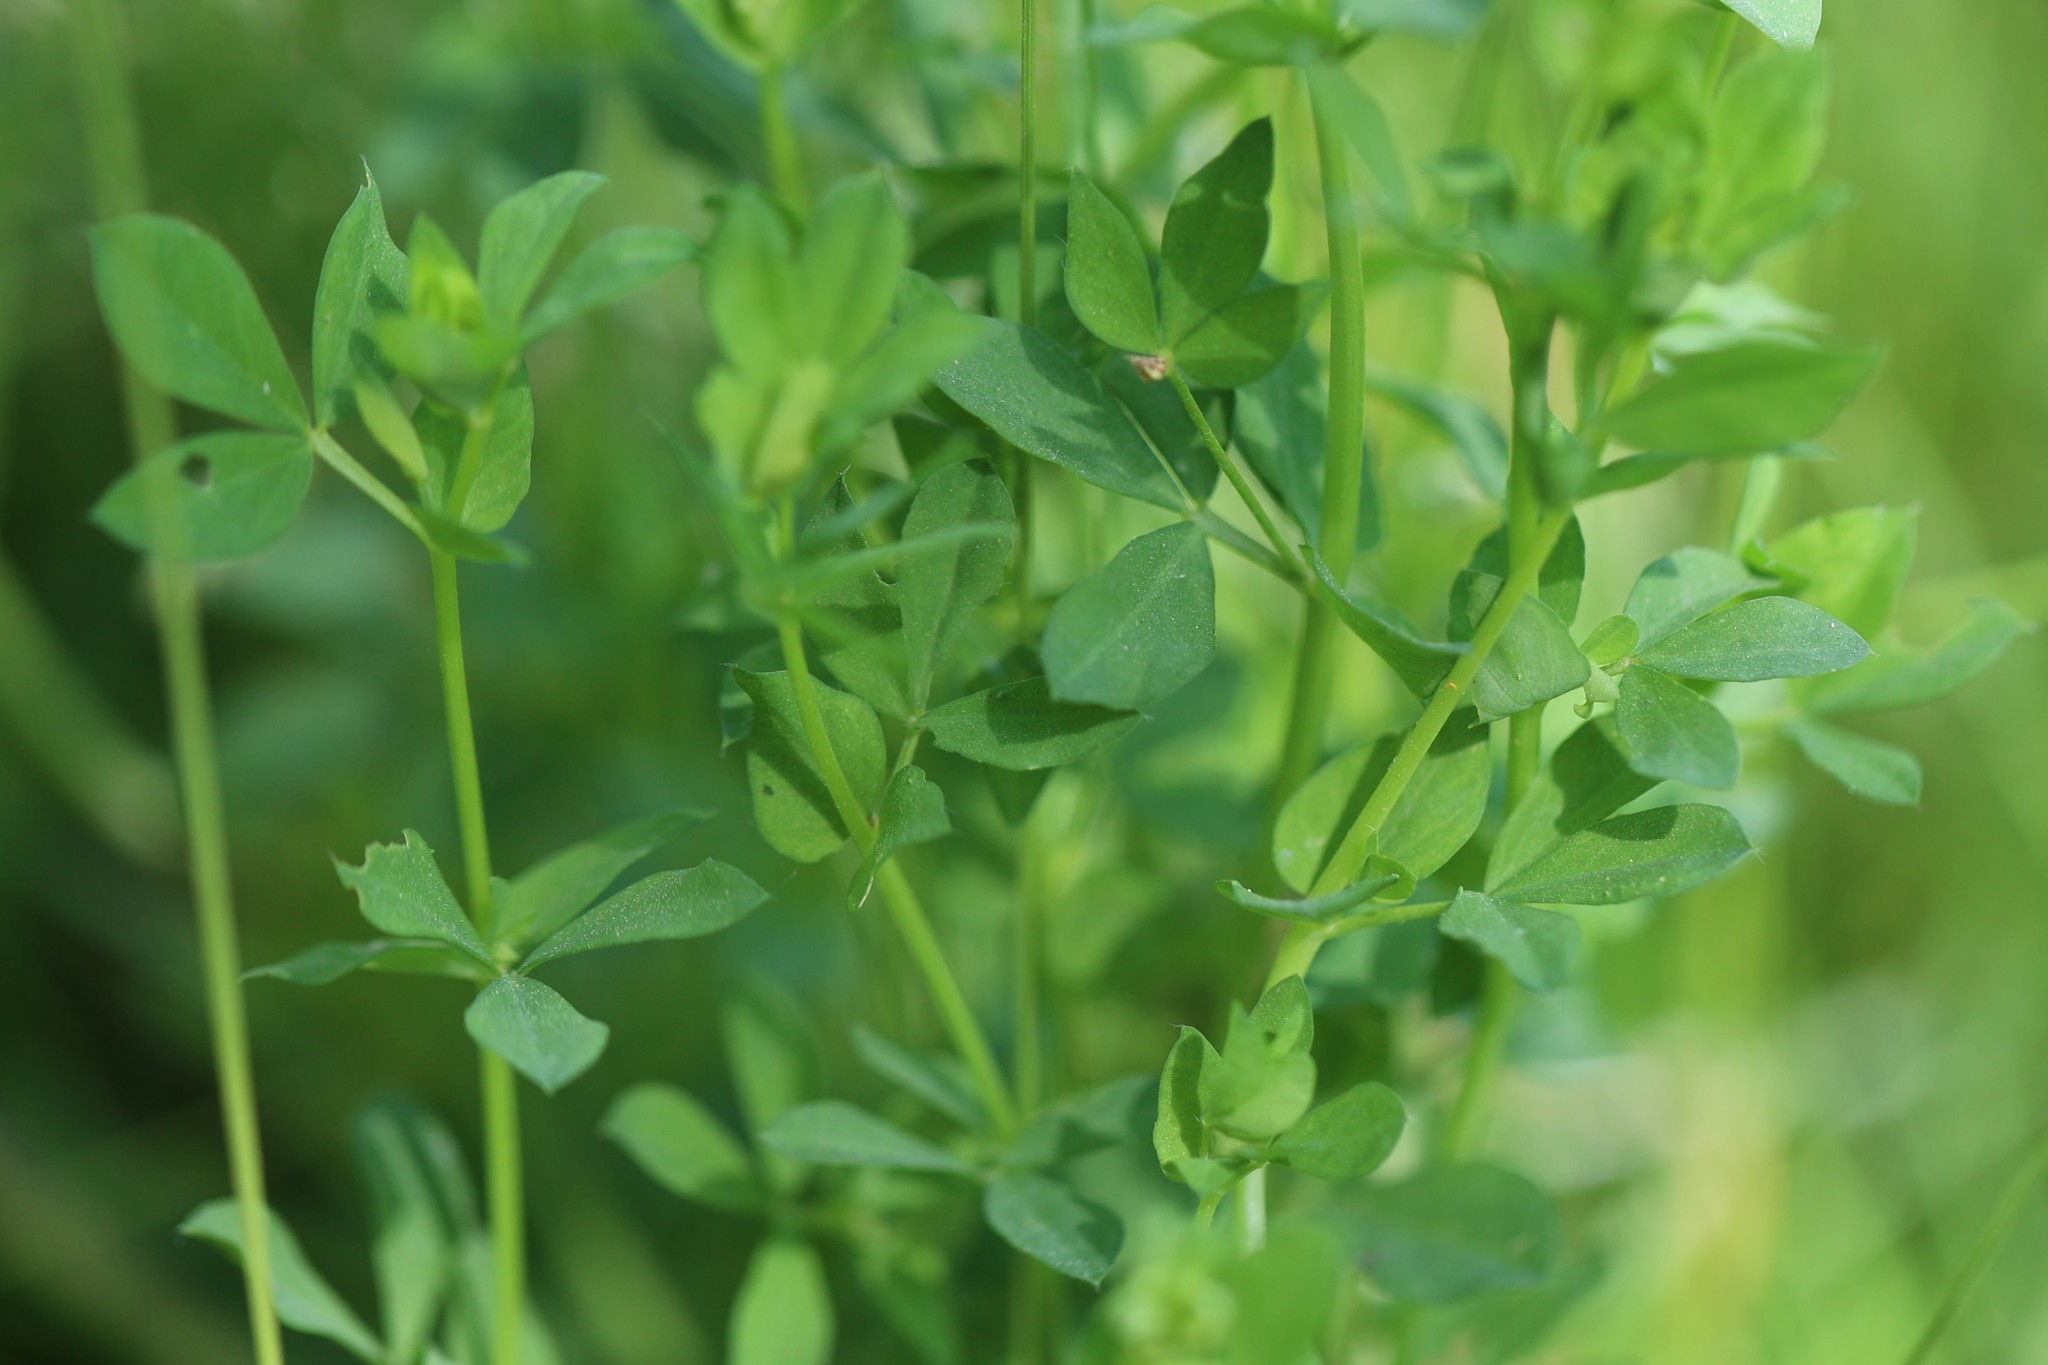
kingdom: Plantae
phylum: Tracheophyta
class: Magnoliopsida
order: Fabales
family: Fabaceae
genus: Lotus
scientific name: Lotus corniculatus
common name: Common bird's-foot-trefoil
